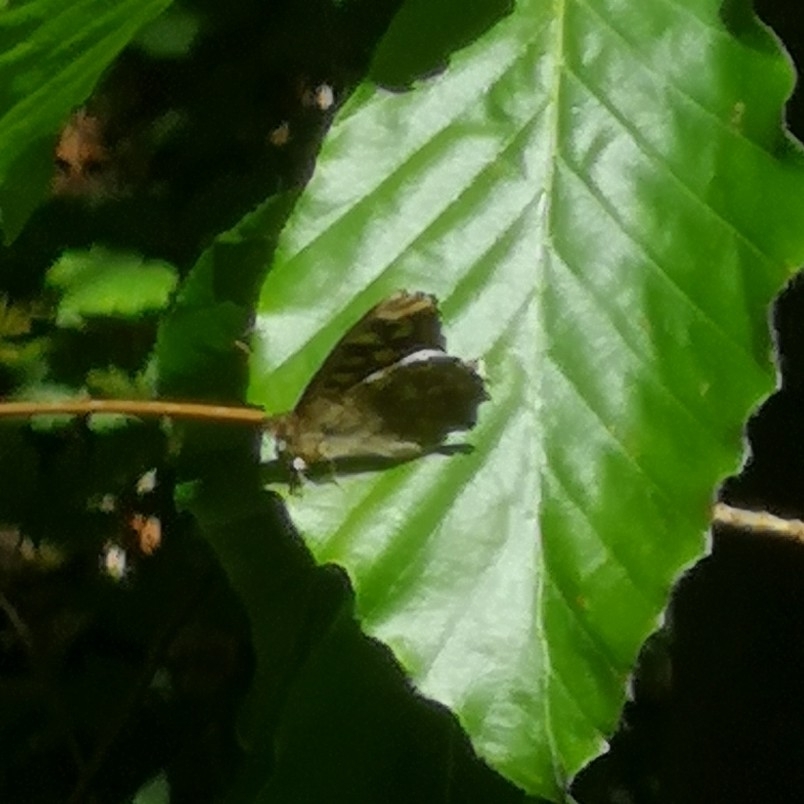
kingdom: Animalia
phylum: Arthropoda
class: Insecta
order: Lepidoptera
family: Nymphalidae
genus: Pararge
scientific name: Pararge aegeria
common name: Speckled wood
